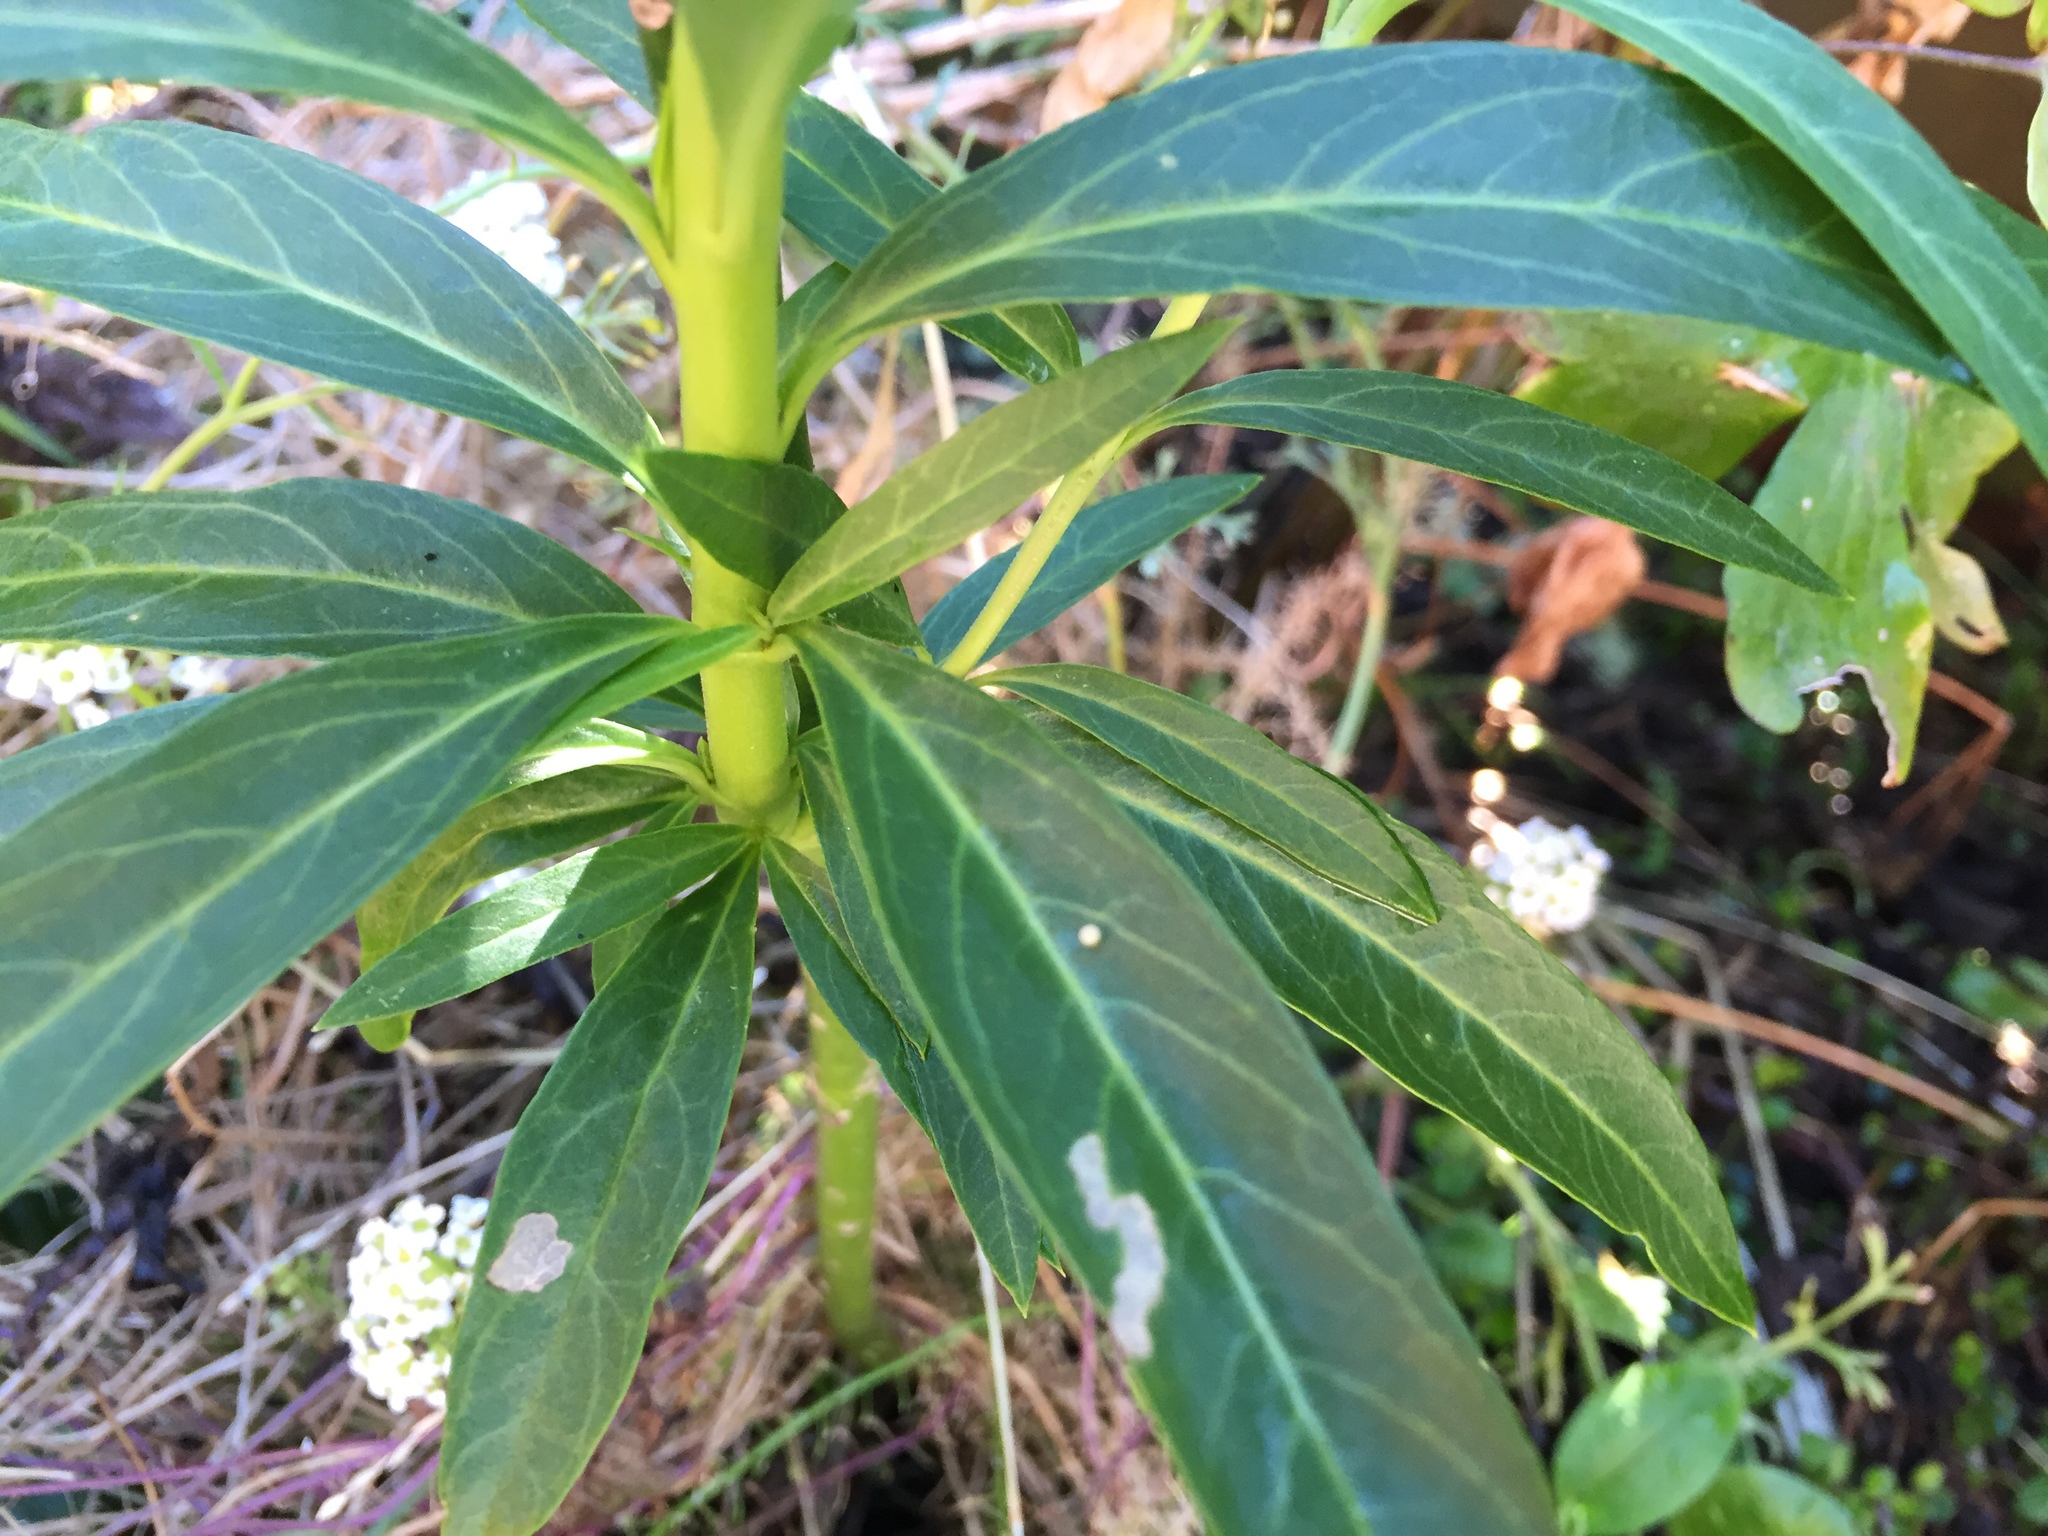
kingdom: Animalia
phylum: Arthropoda
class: Insecta
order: Lepidoptera
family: Nymphalidae
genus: Danaus
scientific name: Danaus plexippus
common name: Monarch
